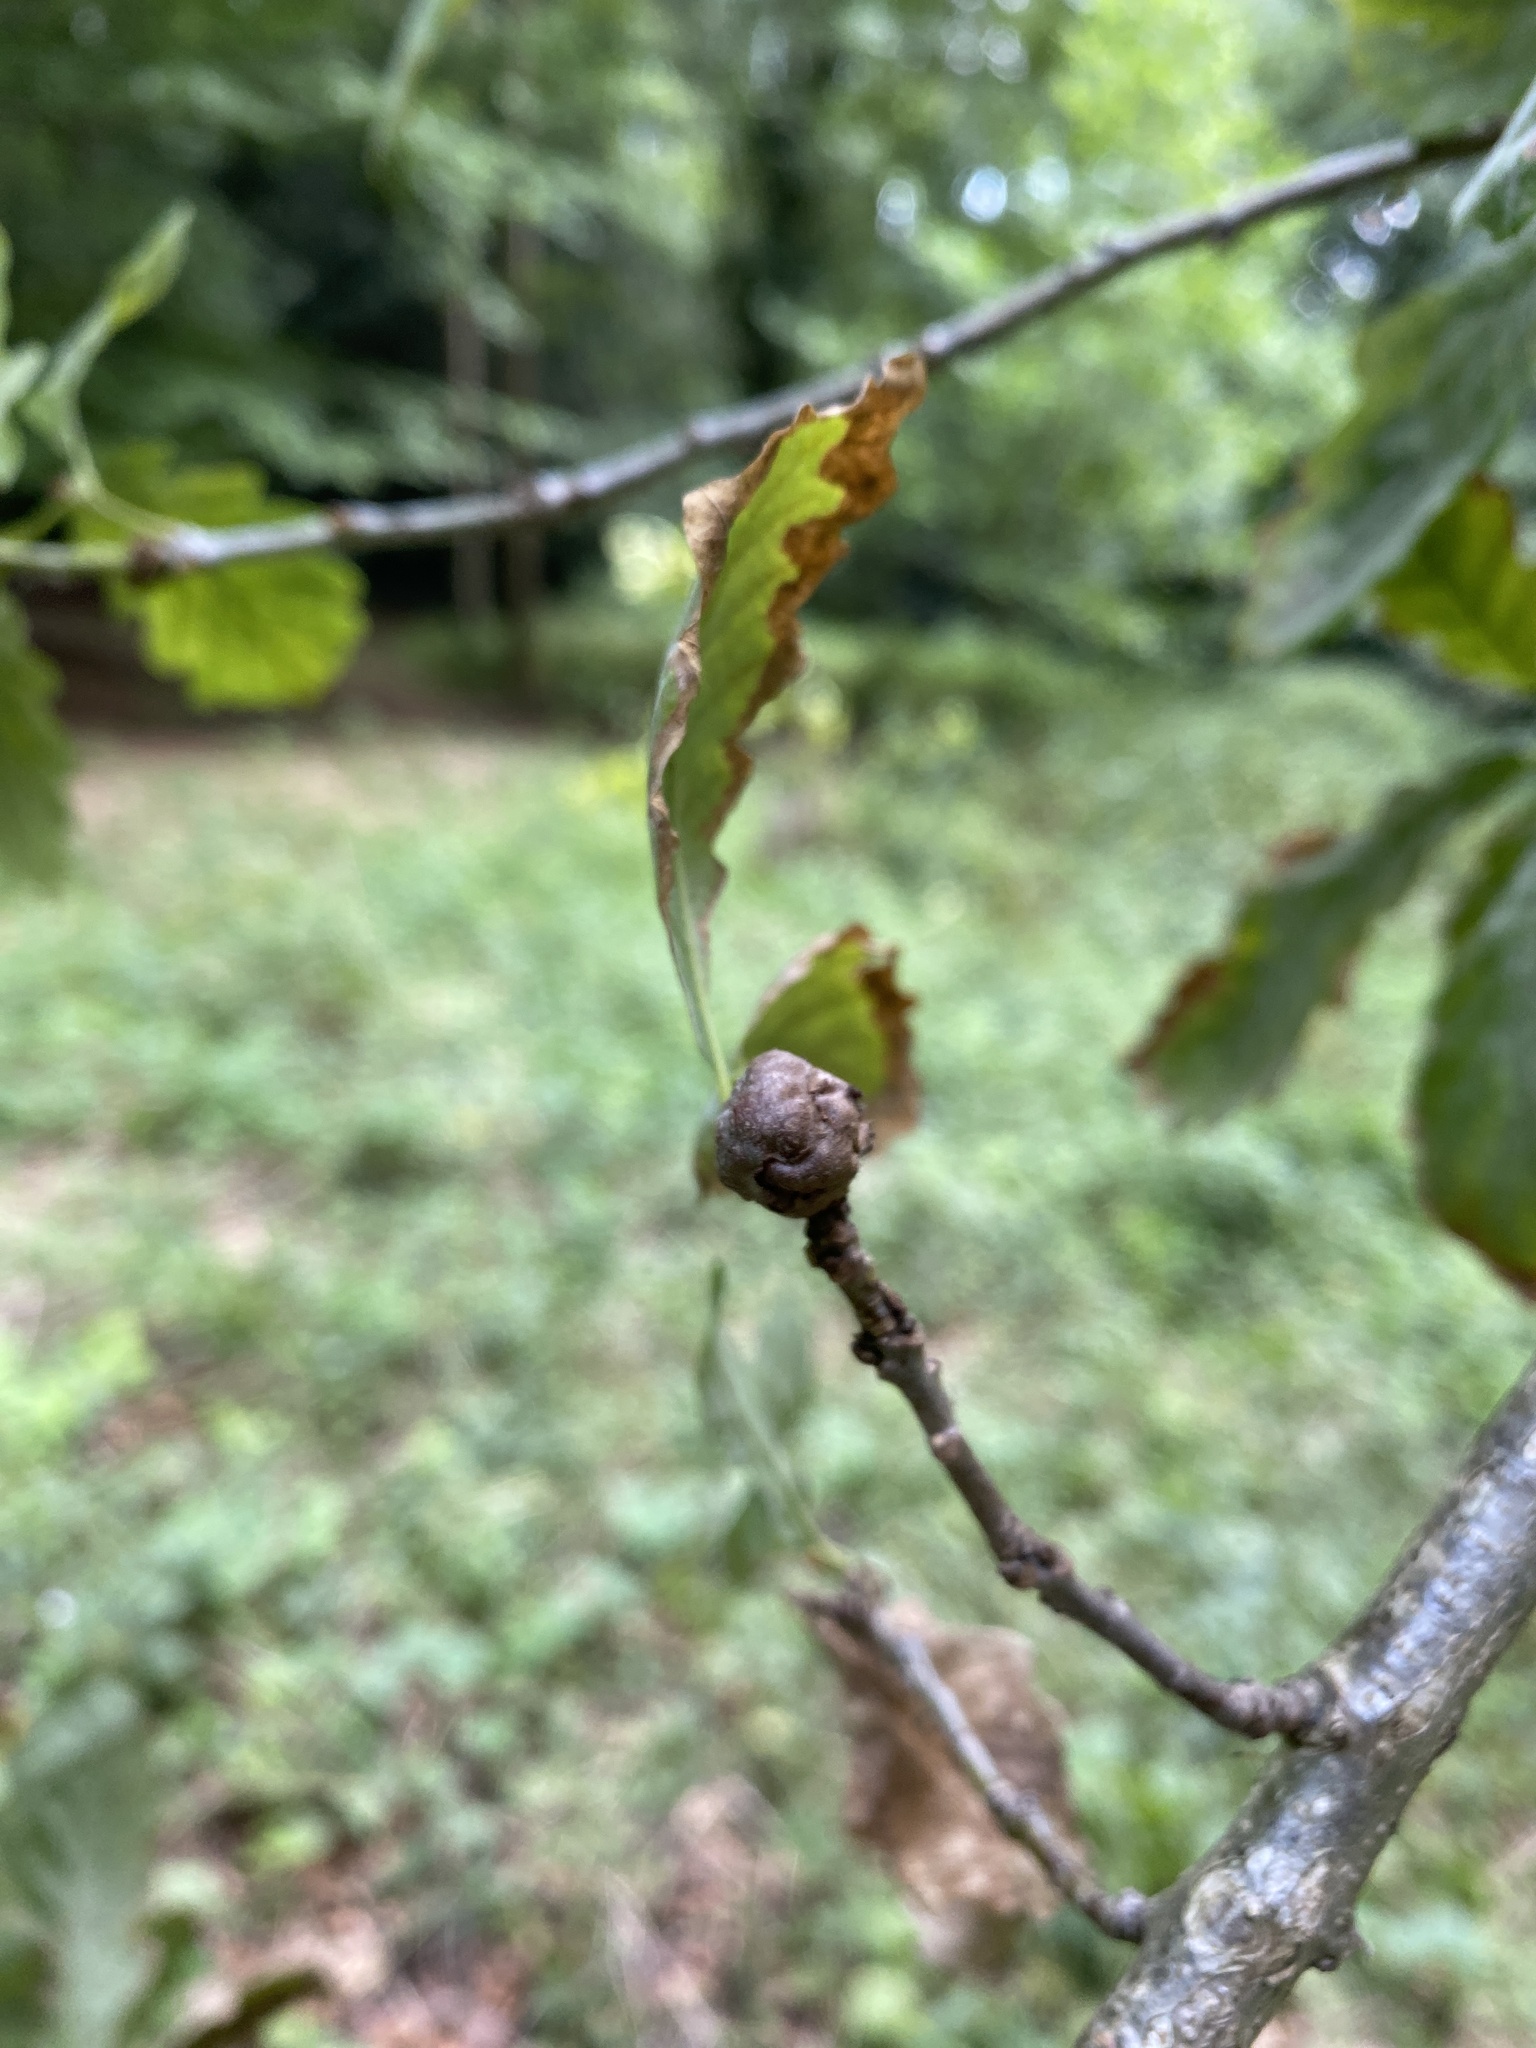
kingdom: Animalia
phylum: Arthropoda
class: Insecta
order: Hymenoptera
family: Cynipidae
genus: Andricus
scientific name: Andricus lignicolus
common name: Cola-nut gall
